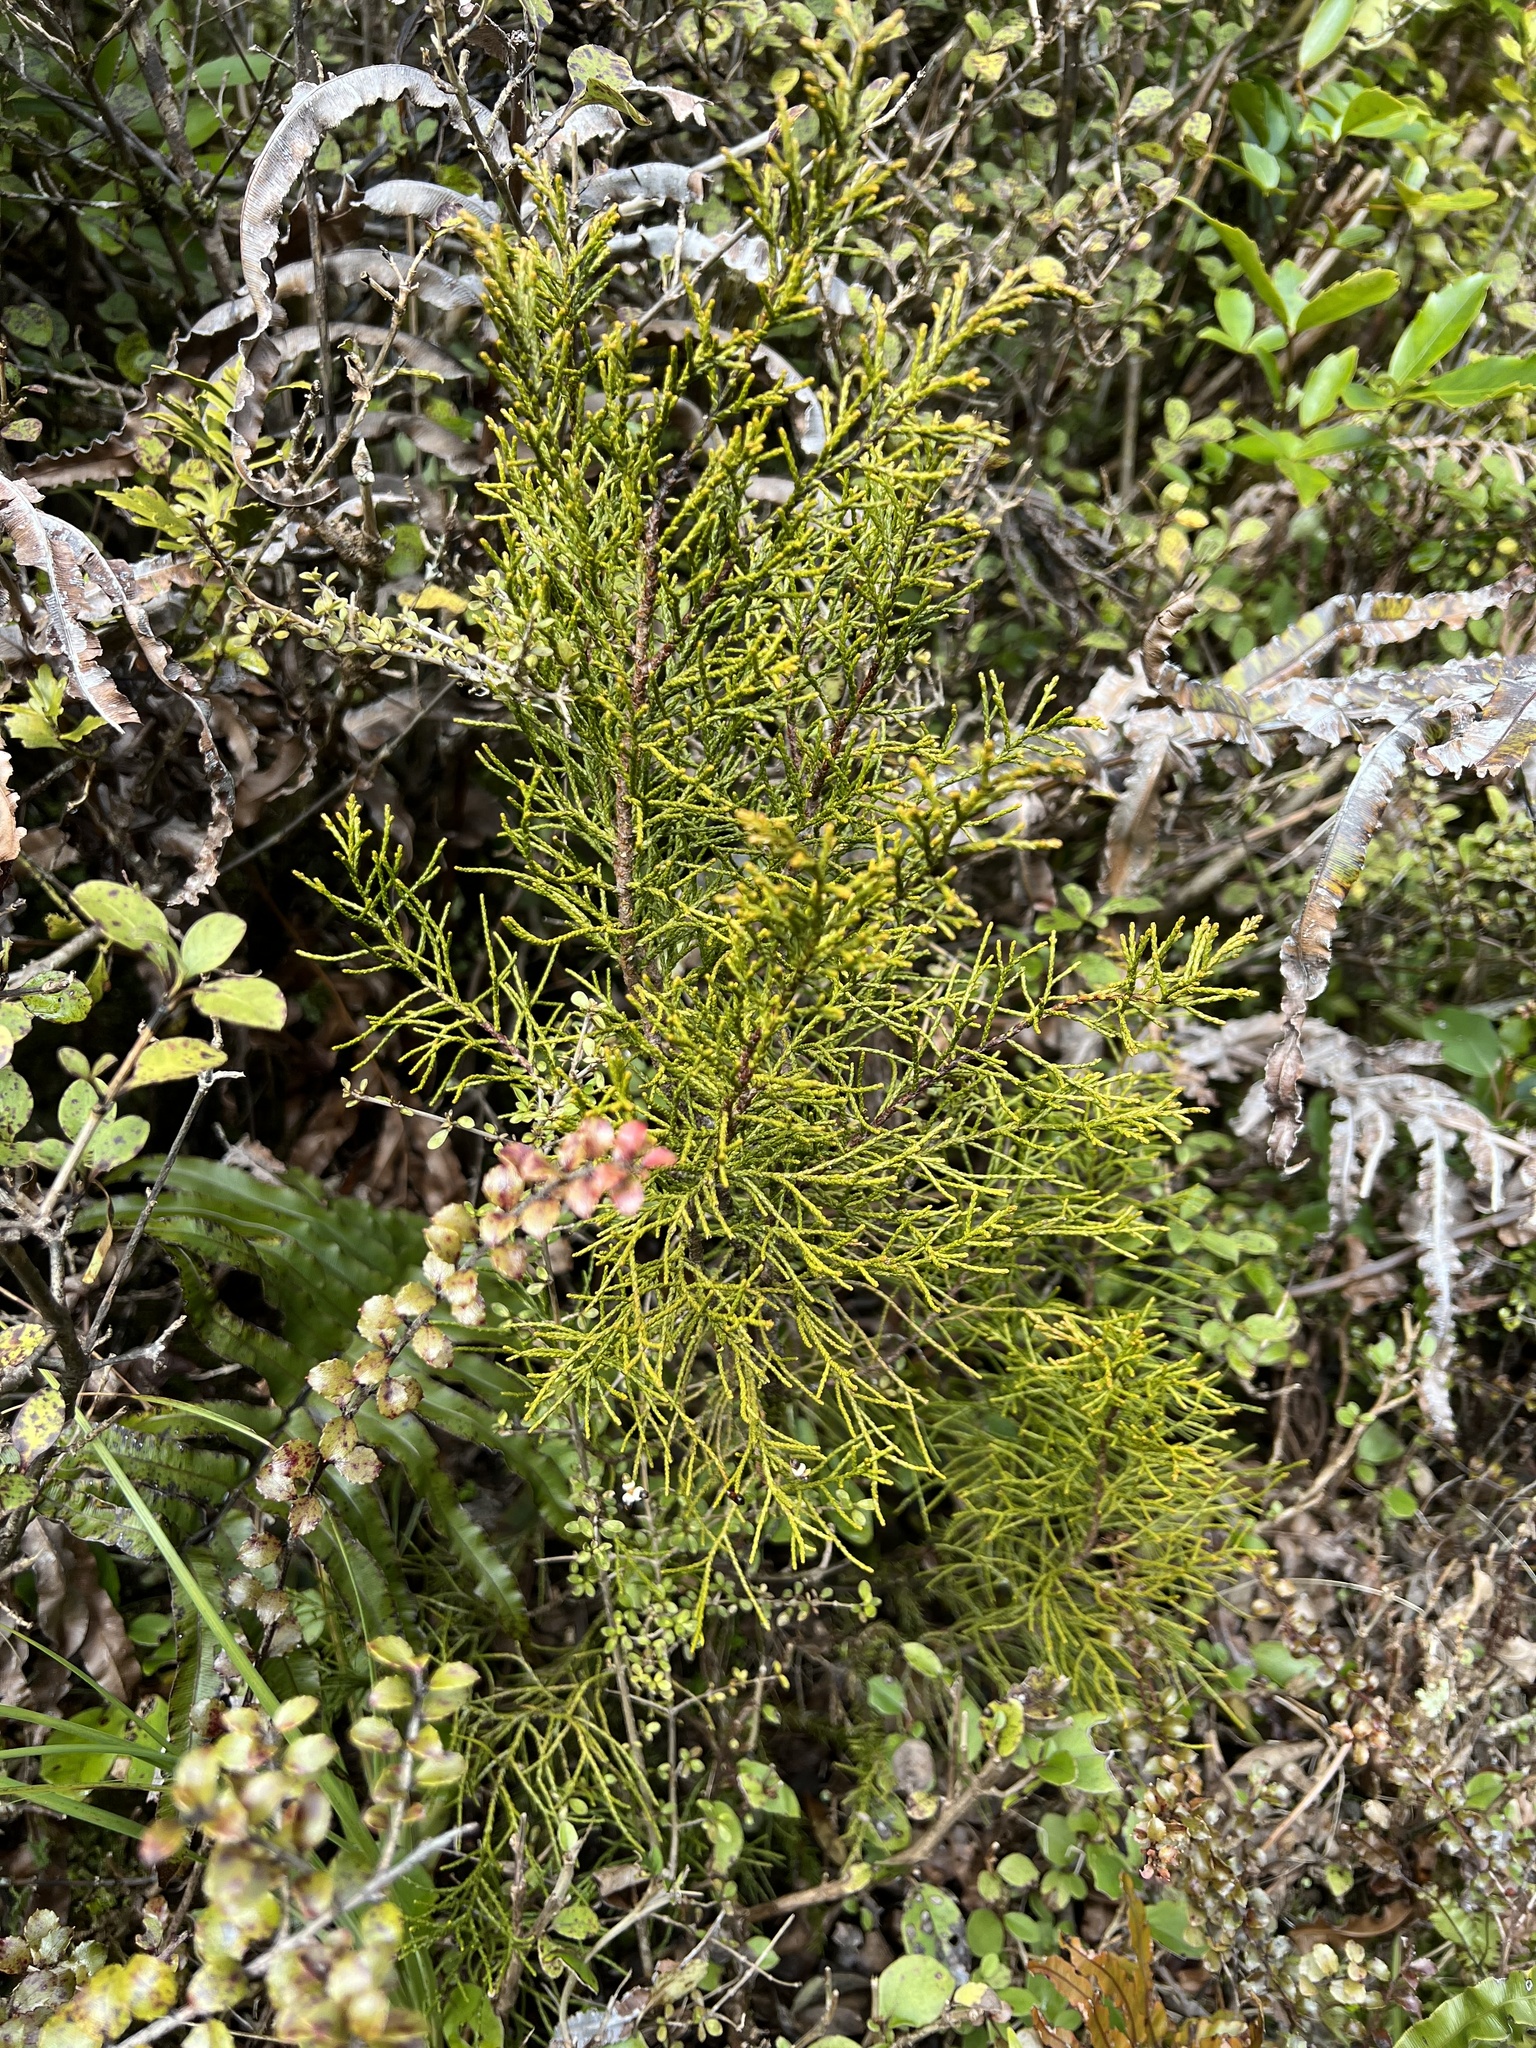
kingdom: Plantae
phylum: Tracheophyta
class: Pinopsida
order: Pinales
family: Podocarpaceae
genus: Halocarpus
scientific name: Halocarpus bidwillii
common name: Bog pine
